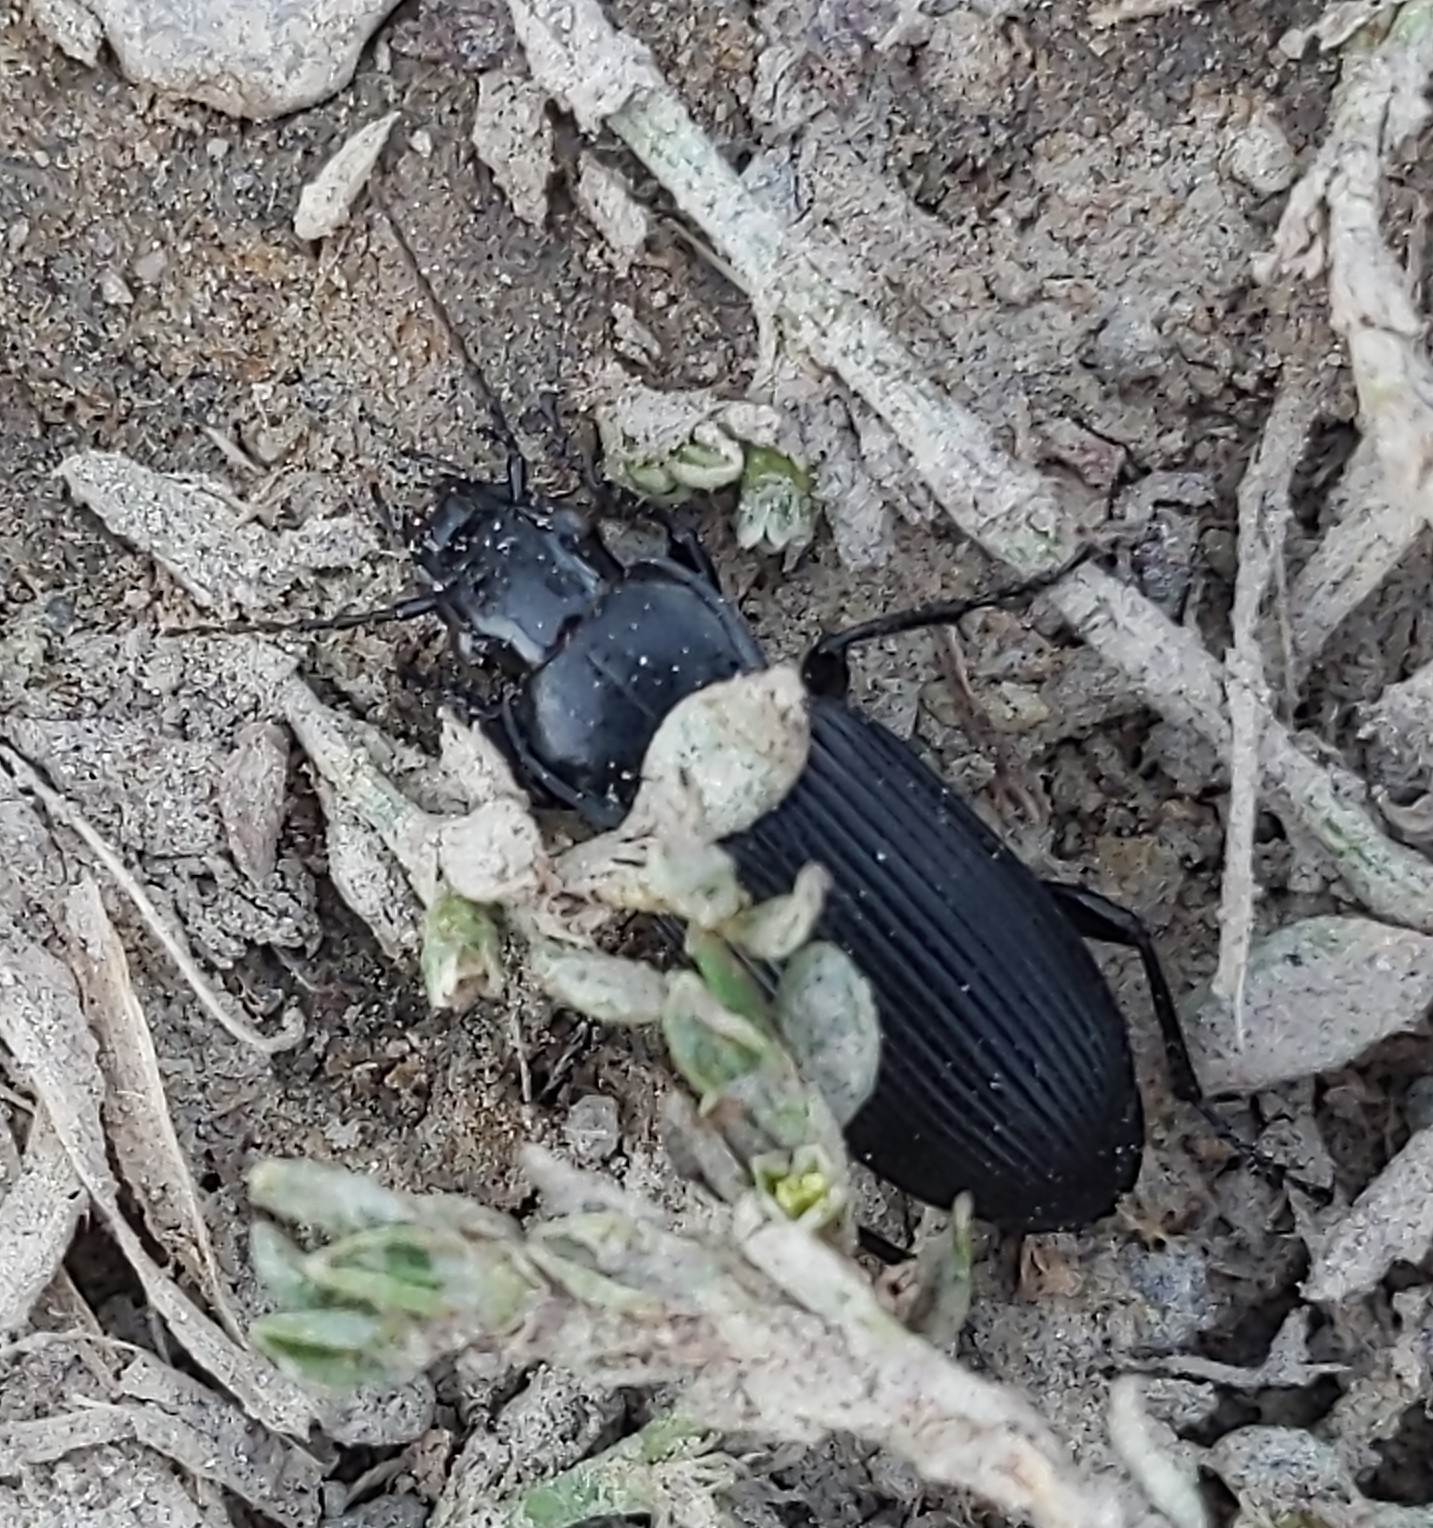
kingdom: Animalia
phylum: Arthropoda
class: Insecta
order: Coleoptera
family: Carabidae
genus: Pterostichus
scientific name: Pterostichus melanarius
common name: European dark harp ground beetle
